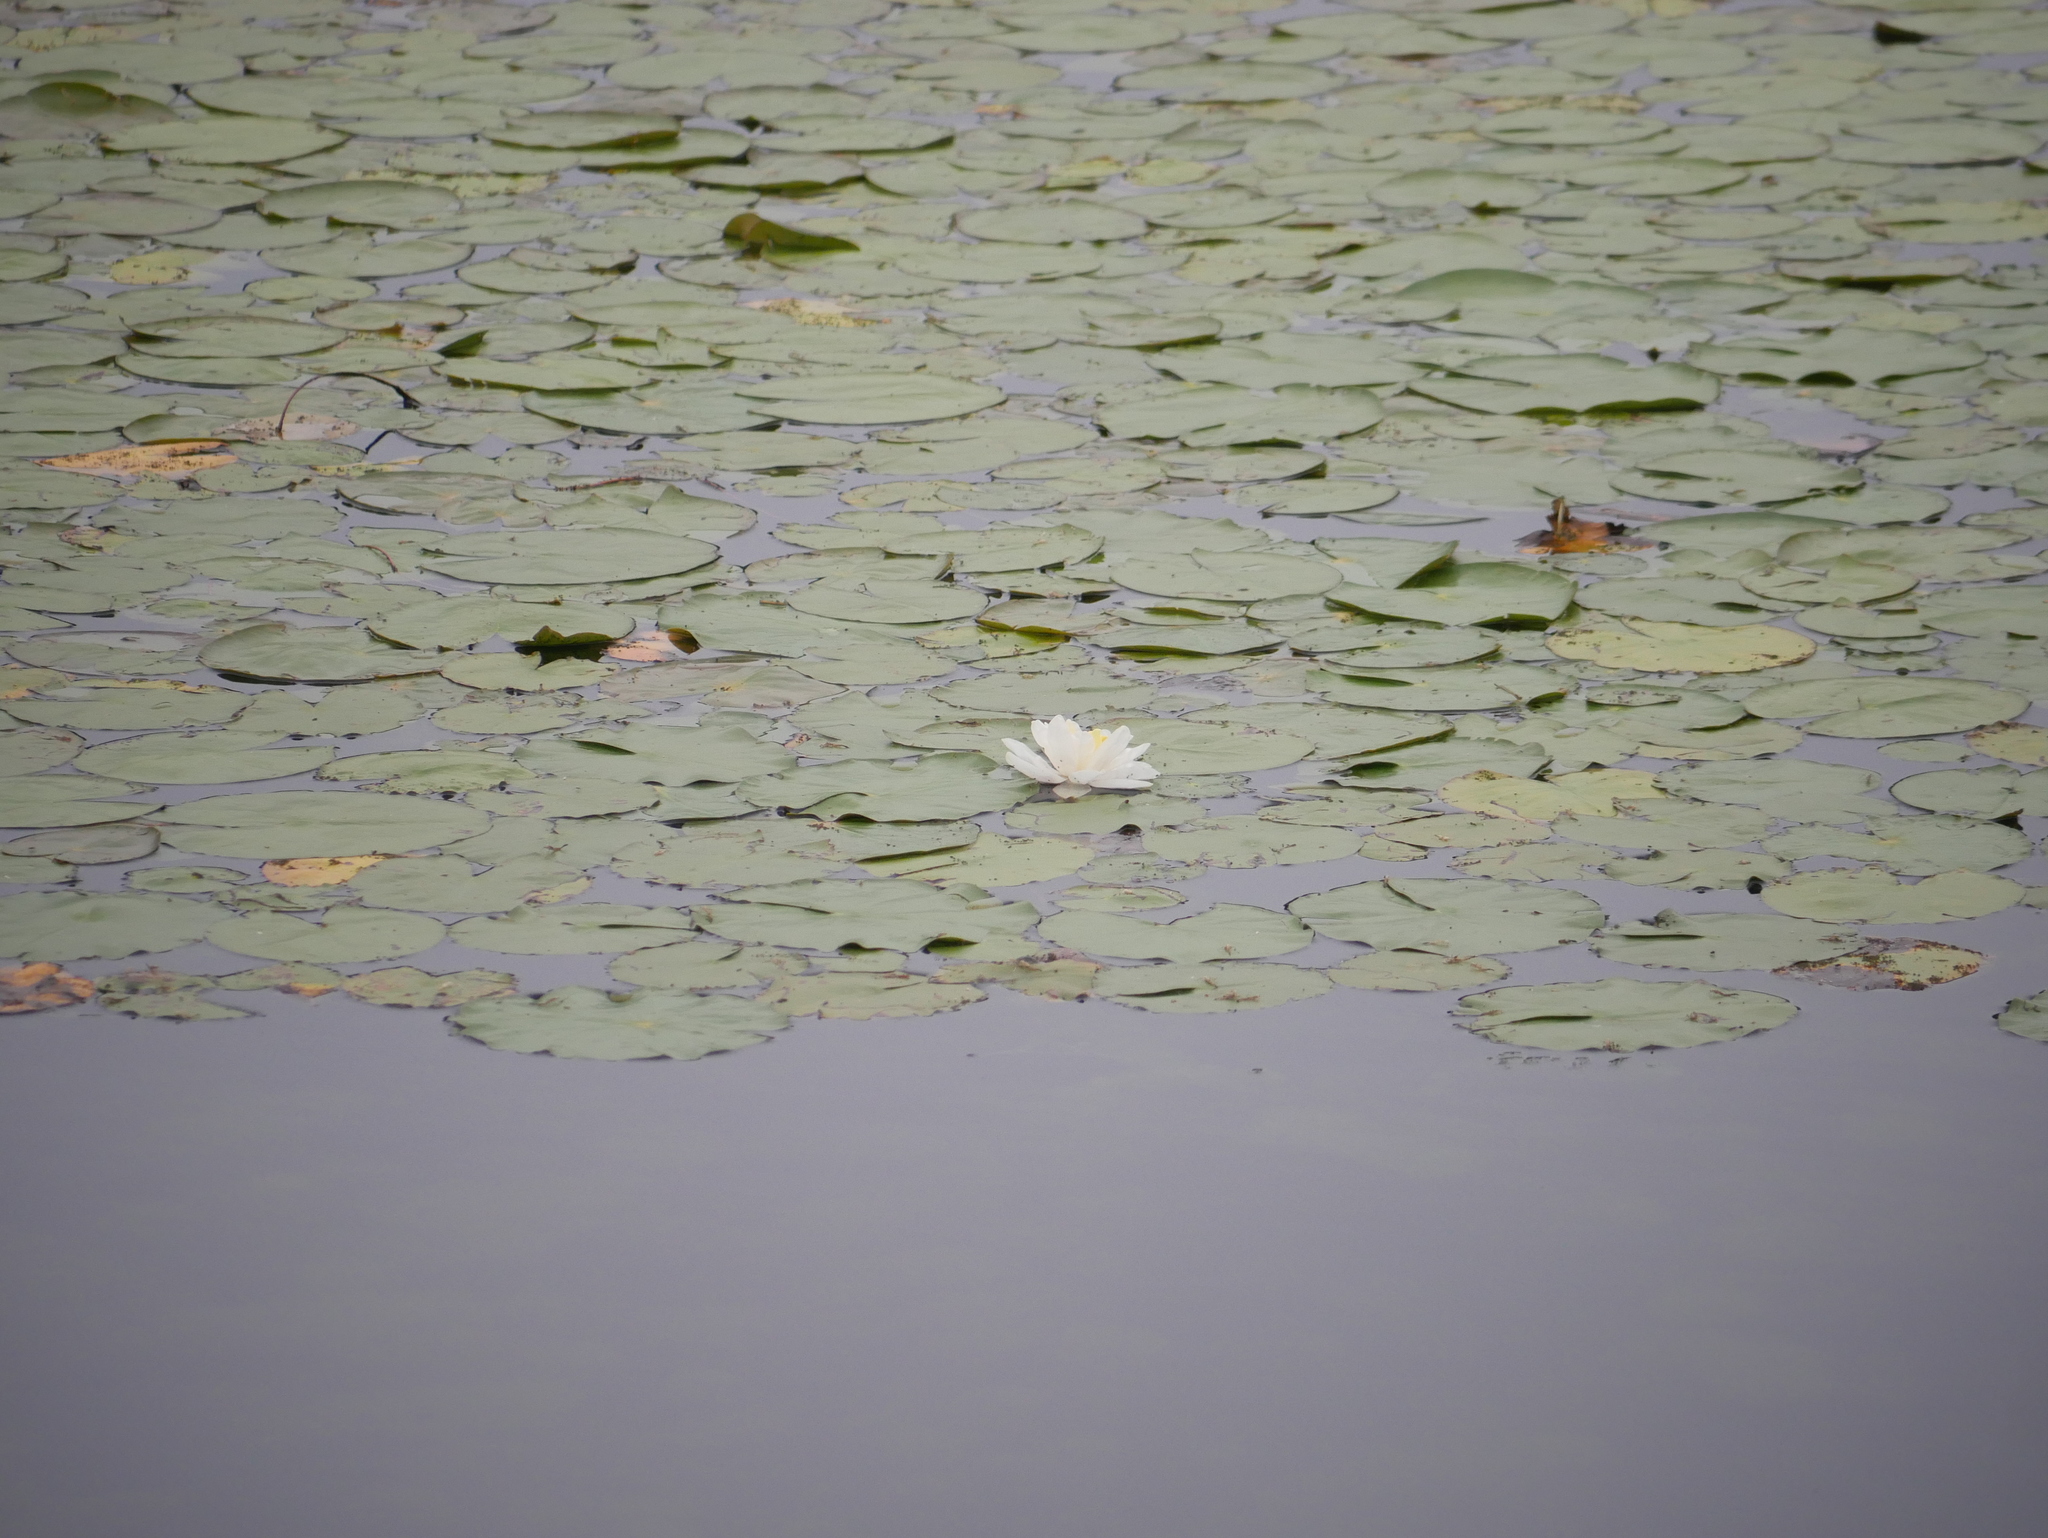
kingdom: Plantae
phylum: Tracheophyta
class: Magnoliopsida
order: Nymphaeales
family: Nymphaeaceae
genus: Nymphaea
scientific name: Nymphaea odorata
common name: Fragrant water-lily
